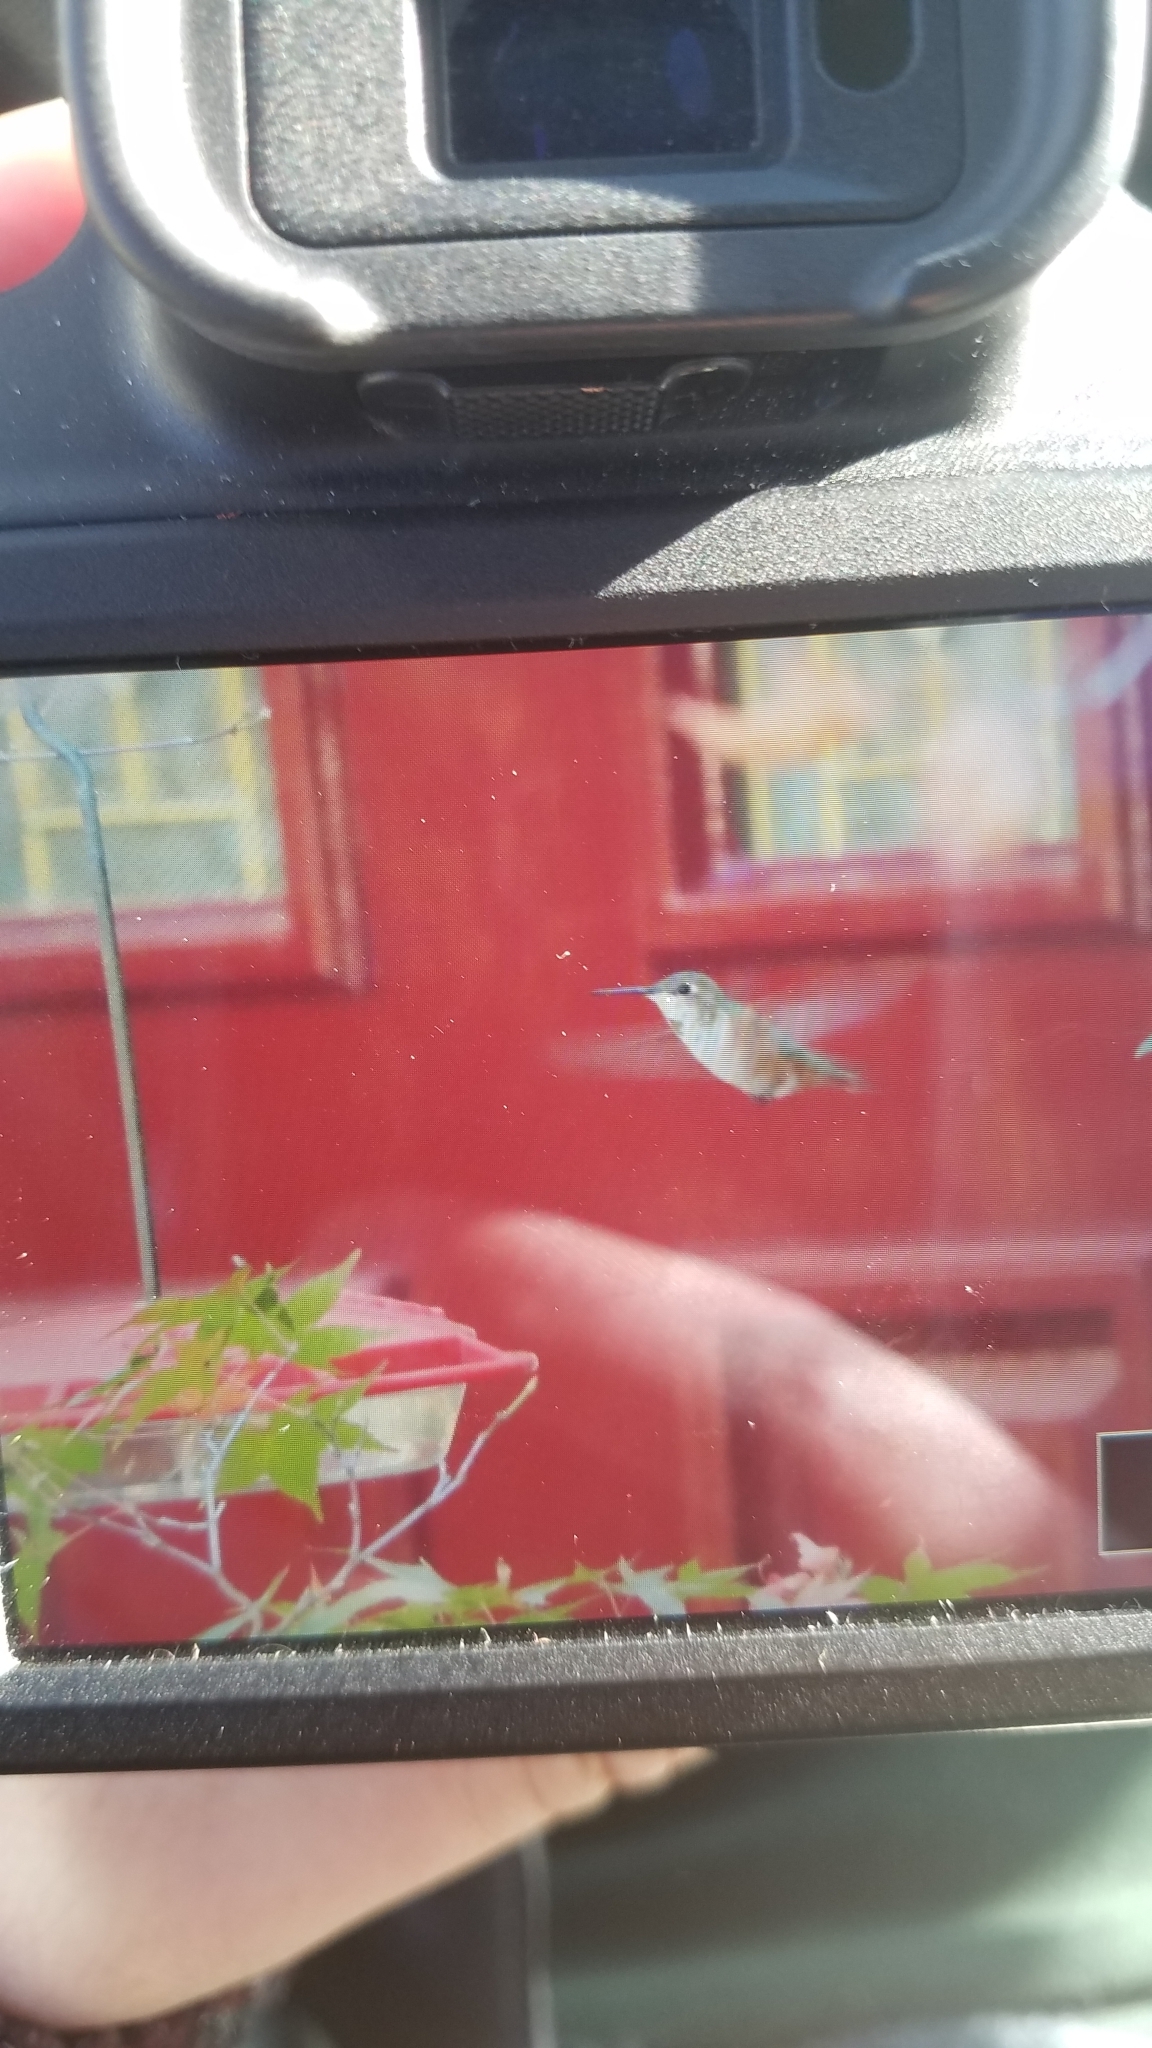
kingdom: Animalia
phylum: Chordata
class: Aves
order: Apodiformes
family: Trochilidae
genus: Selasphorus
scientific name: Selasphorus rufus
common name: Rufous hummingbird
